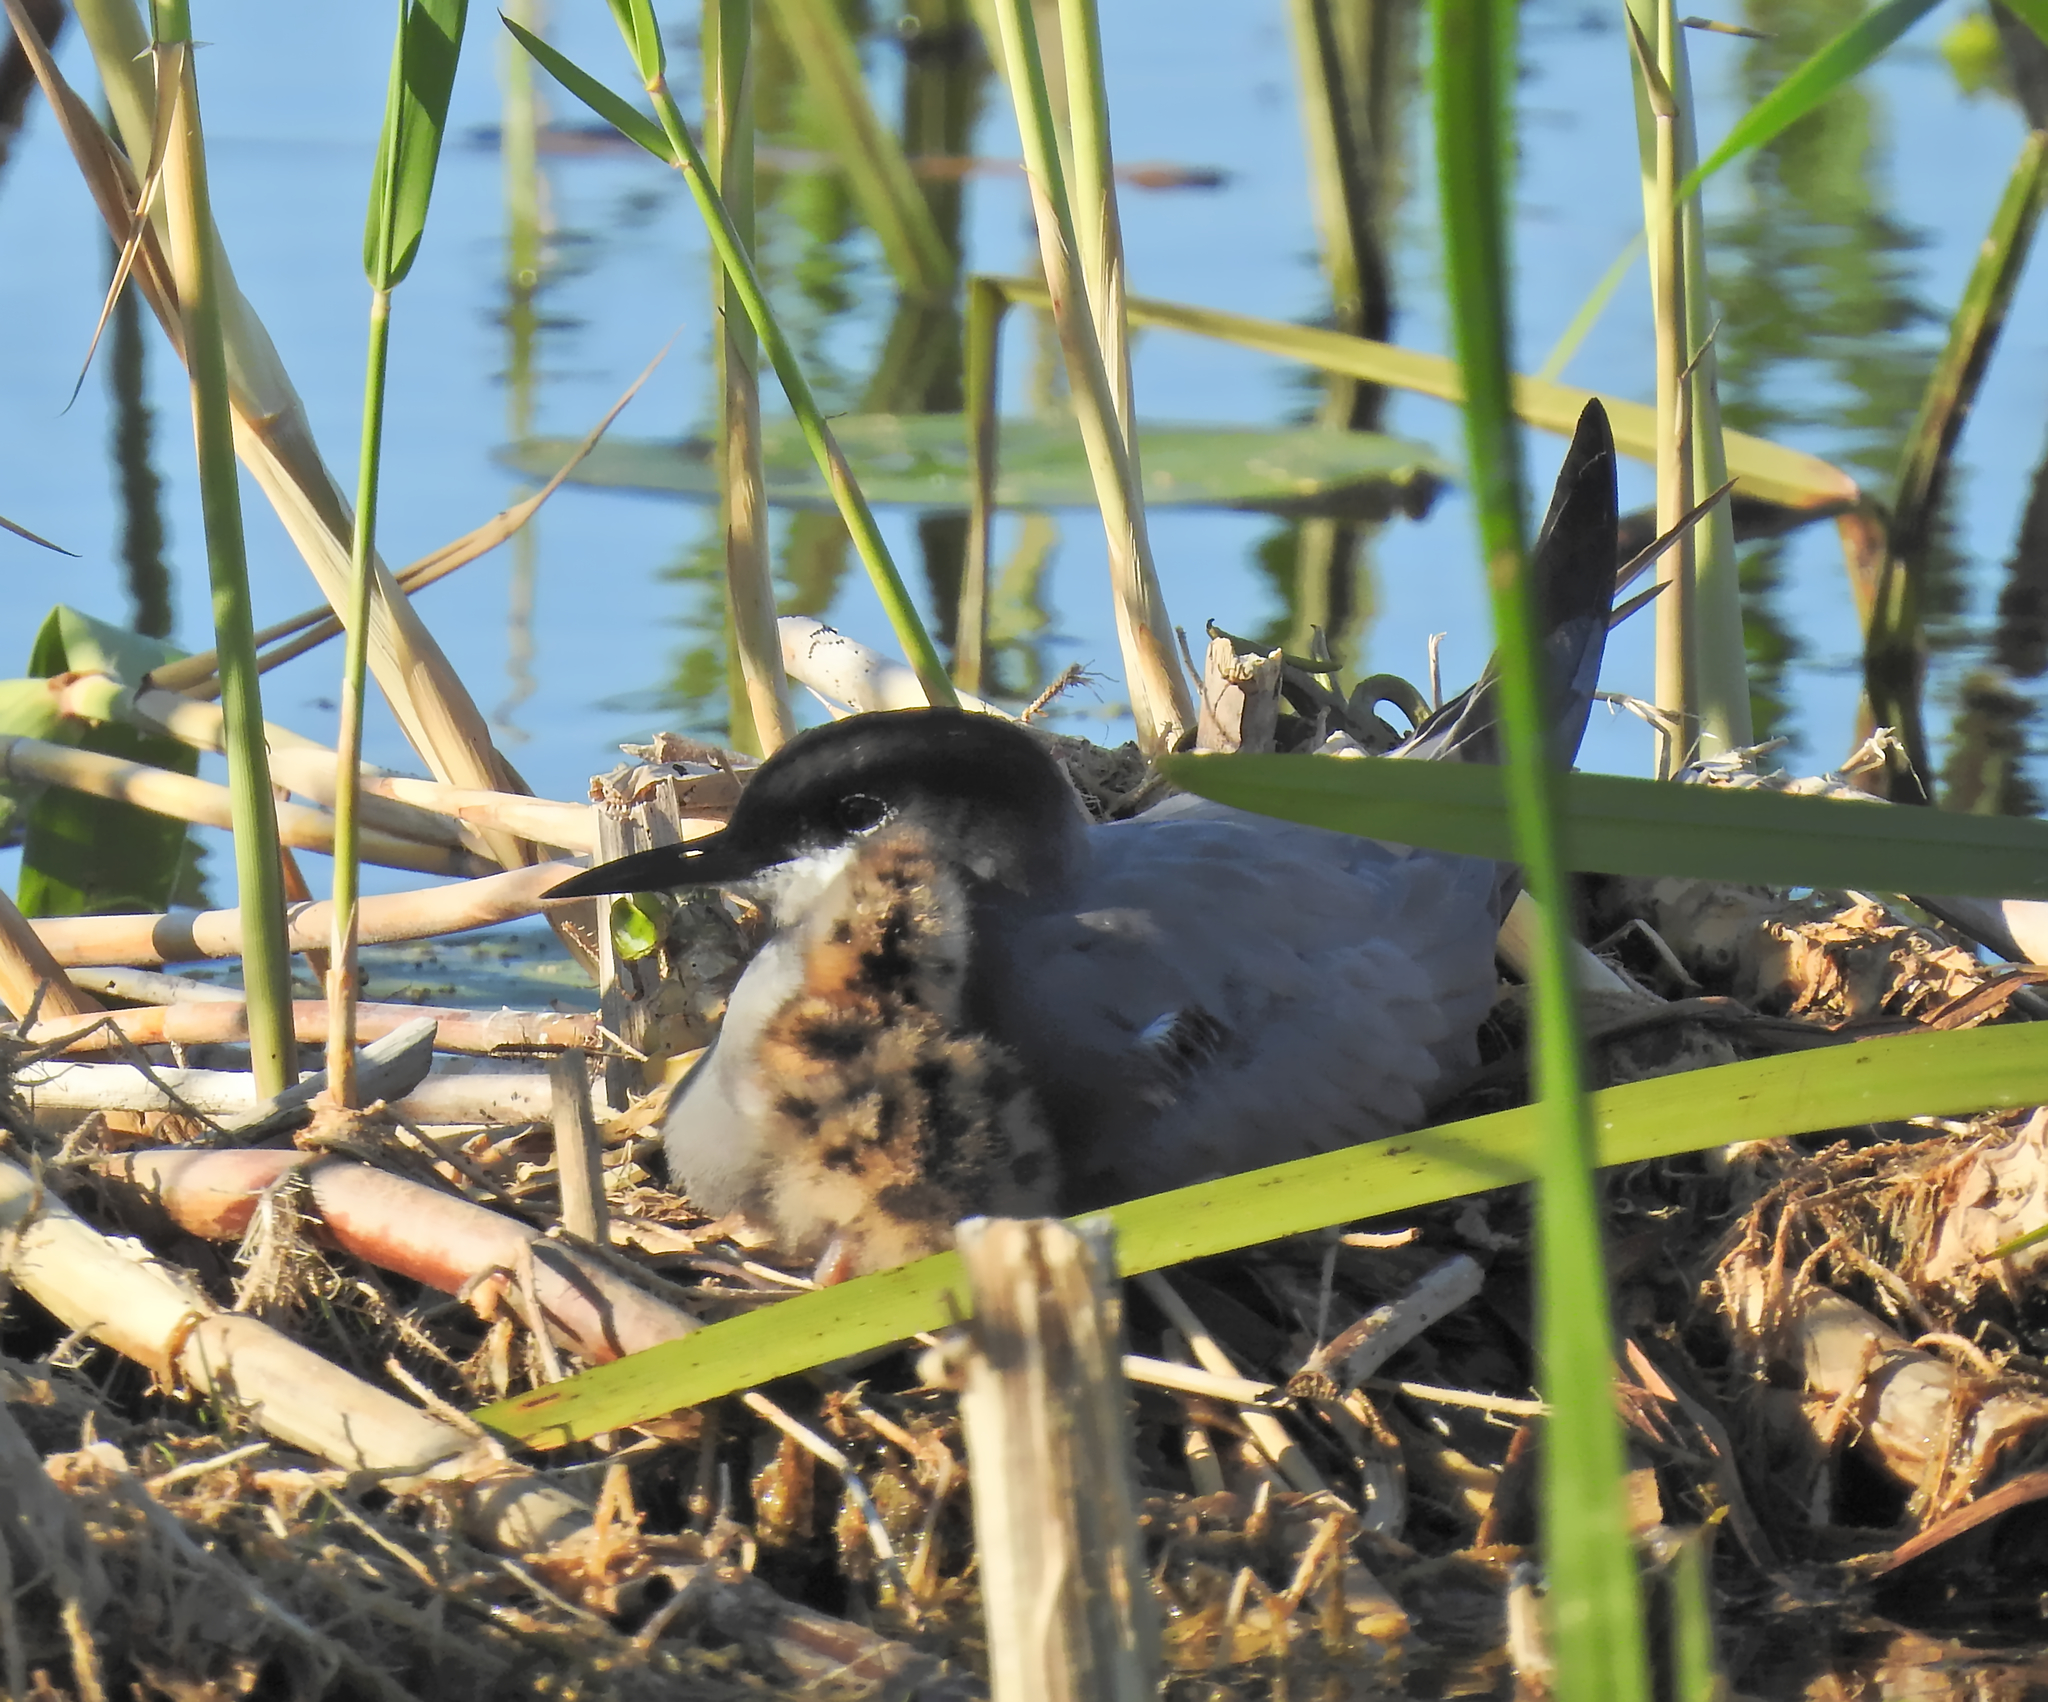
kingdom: Animalia
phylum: Chordata
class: Aves
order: Charadriiformes
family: Laridae
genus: Chlidonias
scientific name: Chlidonias niger
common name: Black tern
